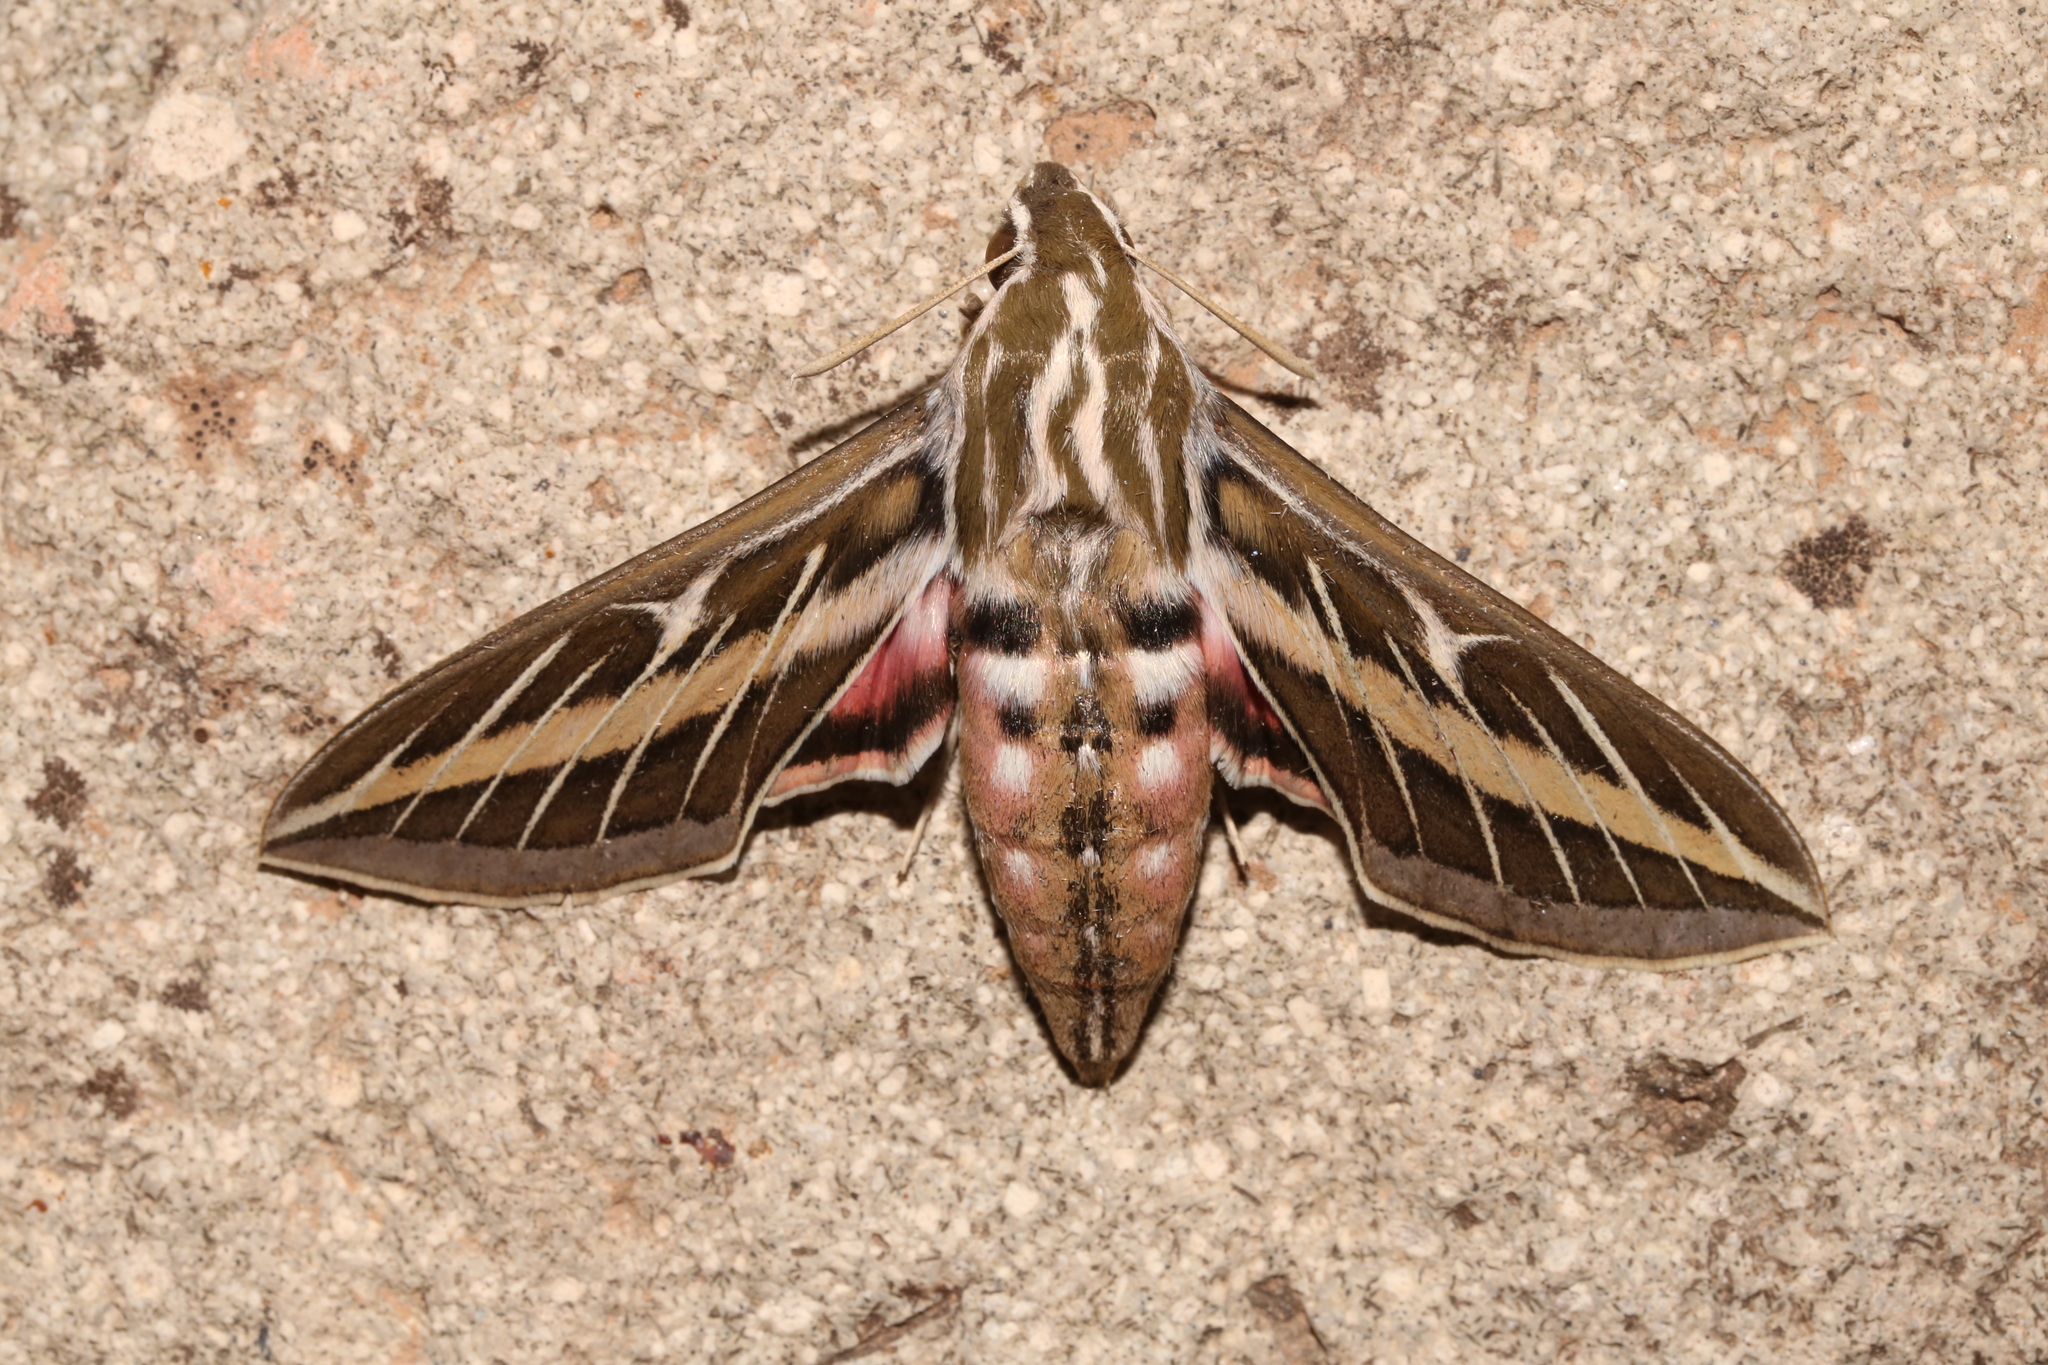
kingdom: Animalia
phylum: Arthropoda
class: Insecta
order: Lepidoptera
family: Sphingidae
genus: Hyles
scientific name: Hyles lineata
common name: White-lined sphinx
